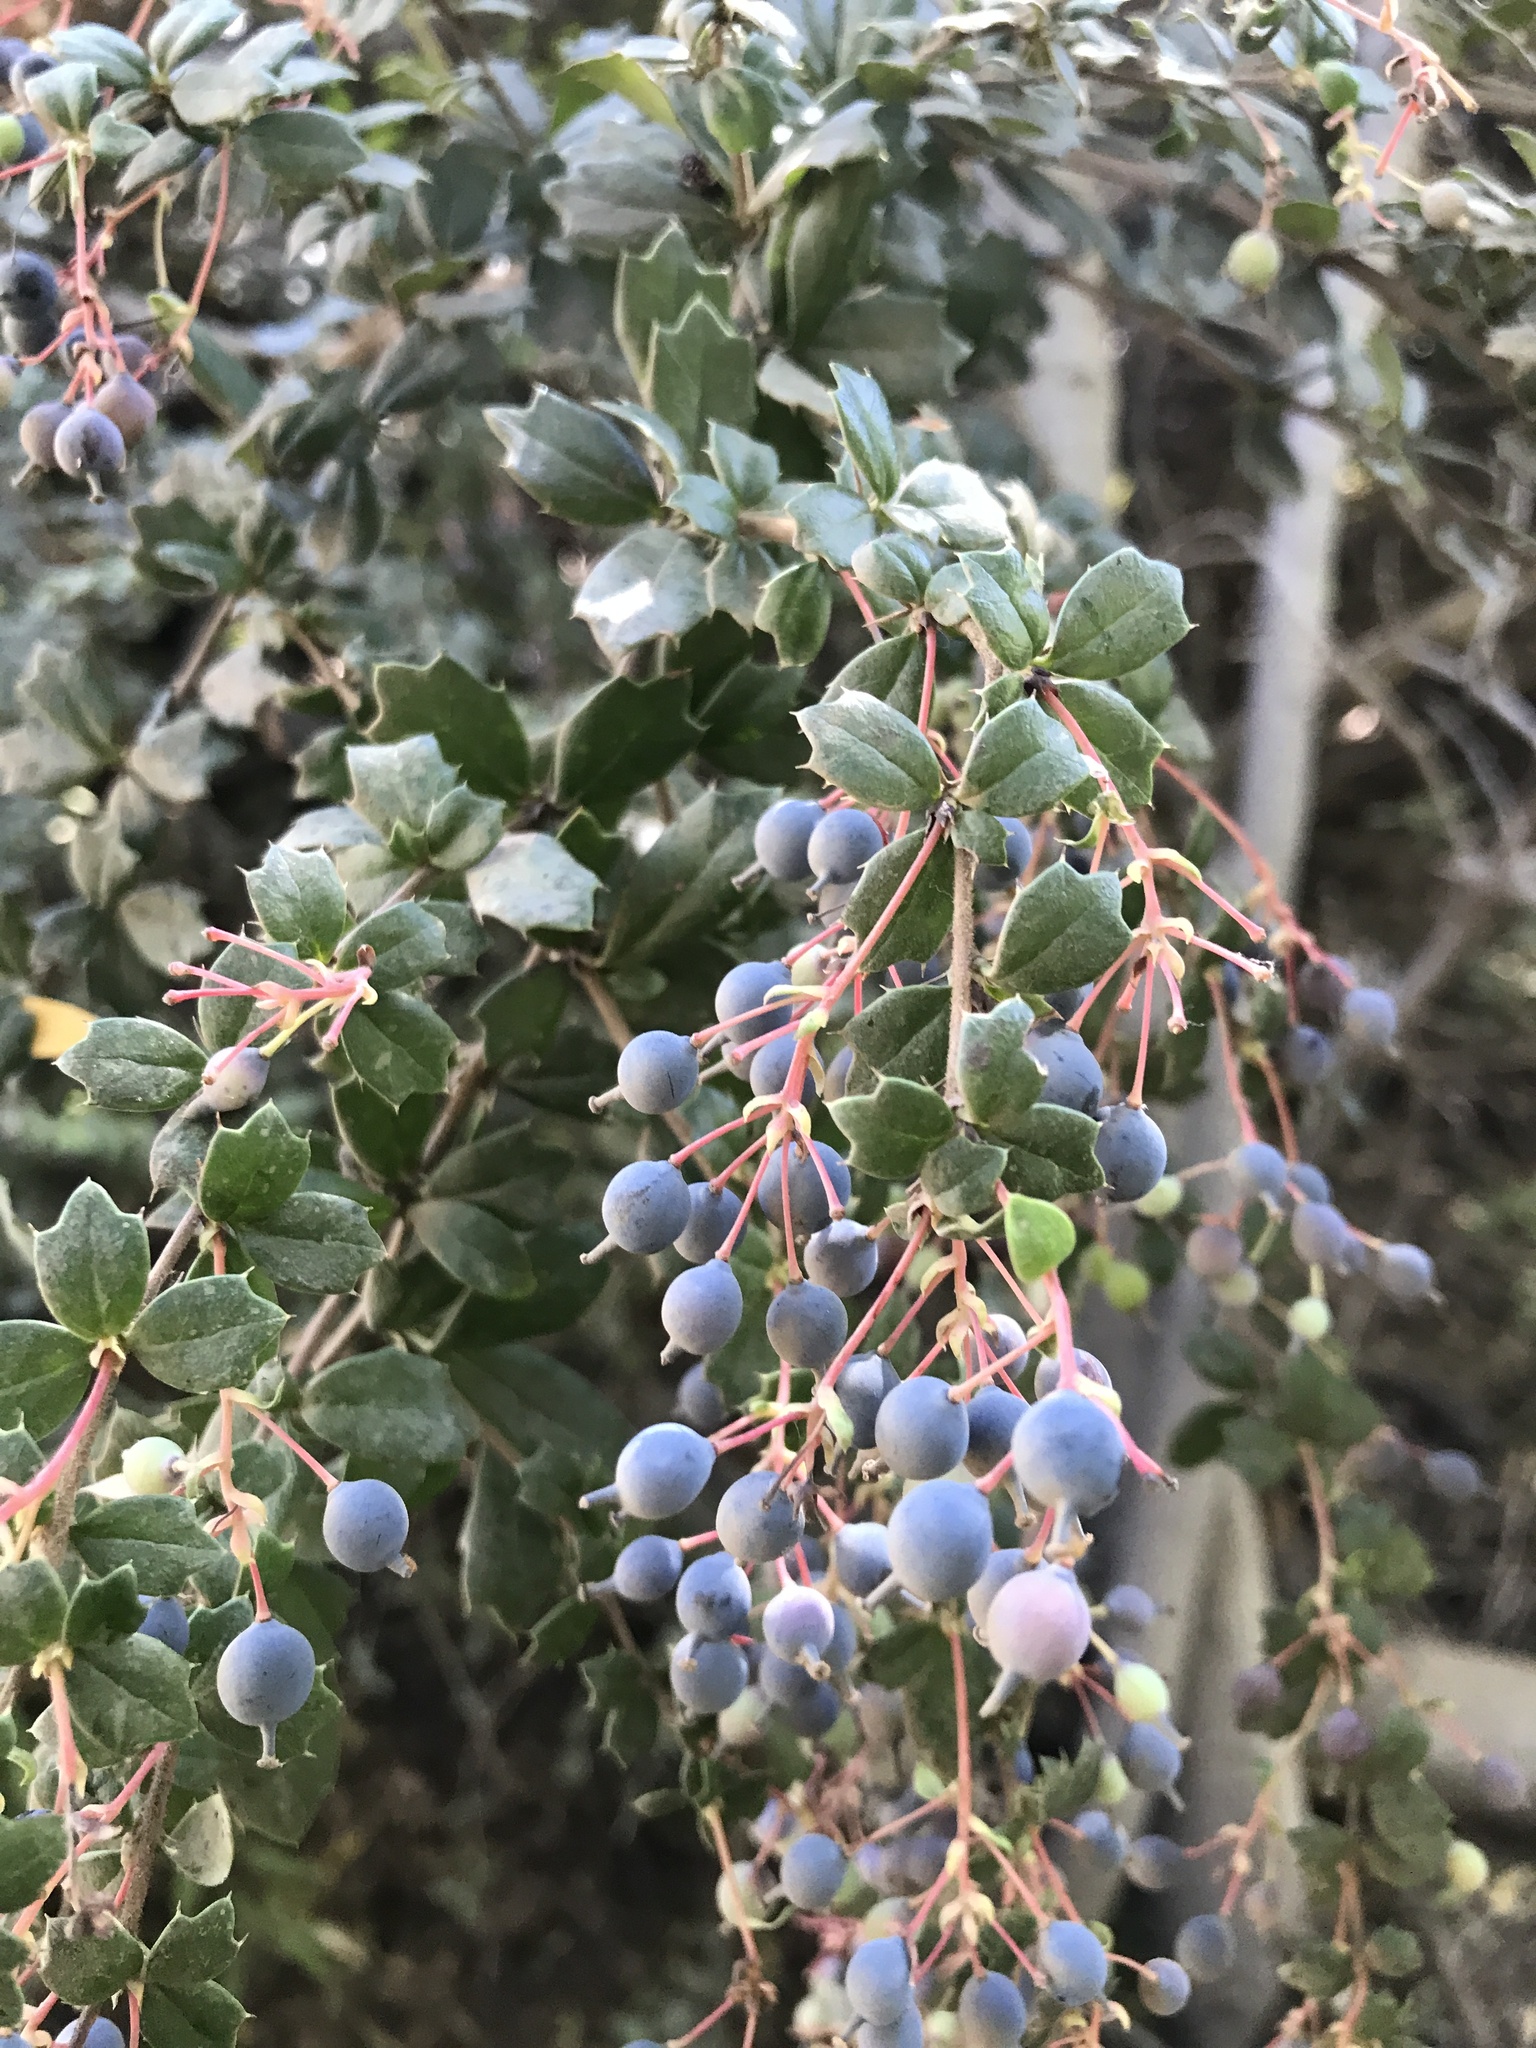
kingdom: Plantae
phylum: Tracheophyta
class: Magnoliopsida
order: Ranunculales
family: Berberidaceae
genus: Berberis
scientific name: Berberis darwinii
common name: Darwin's barberry
